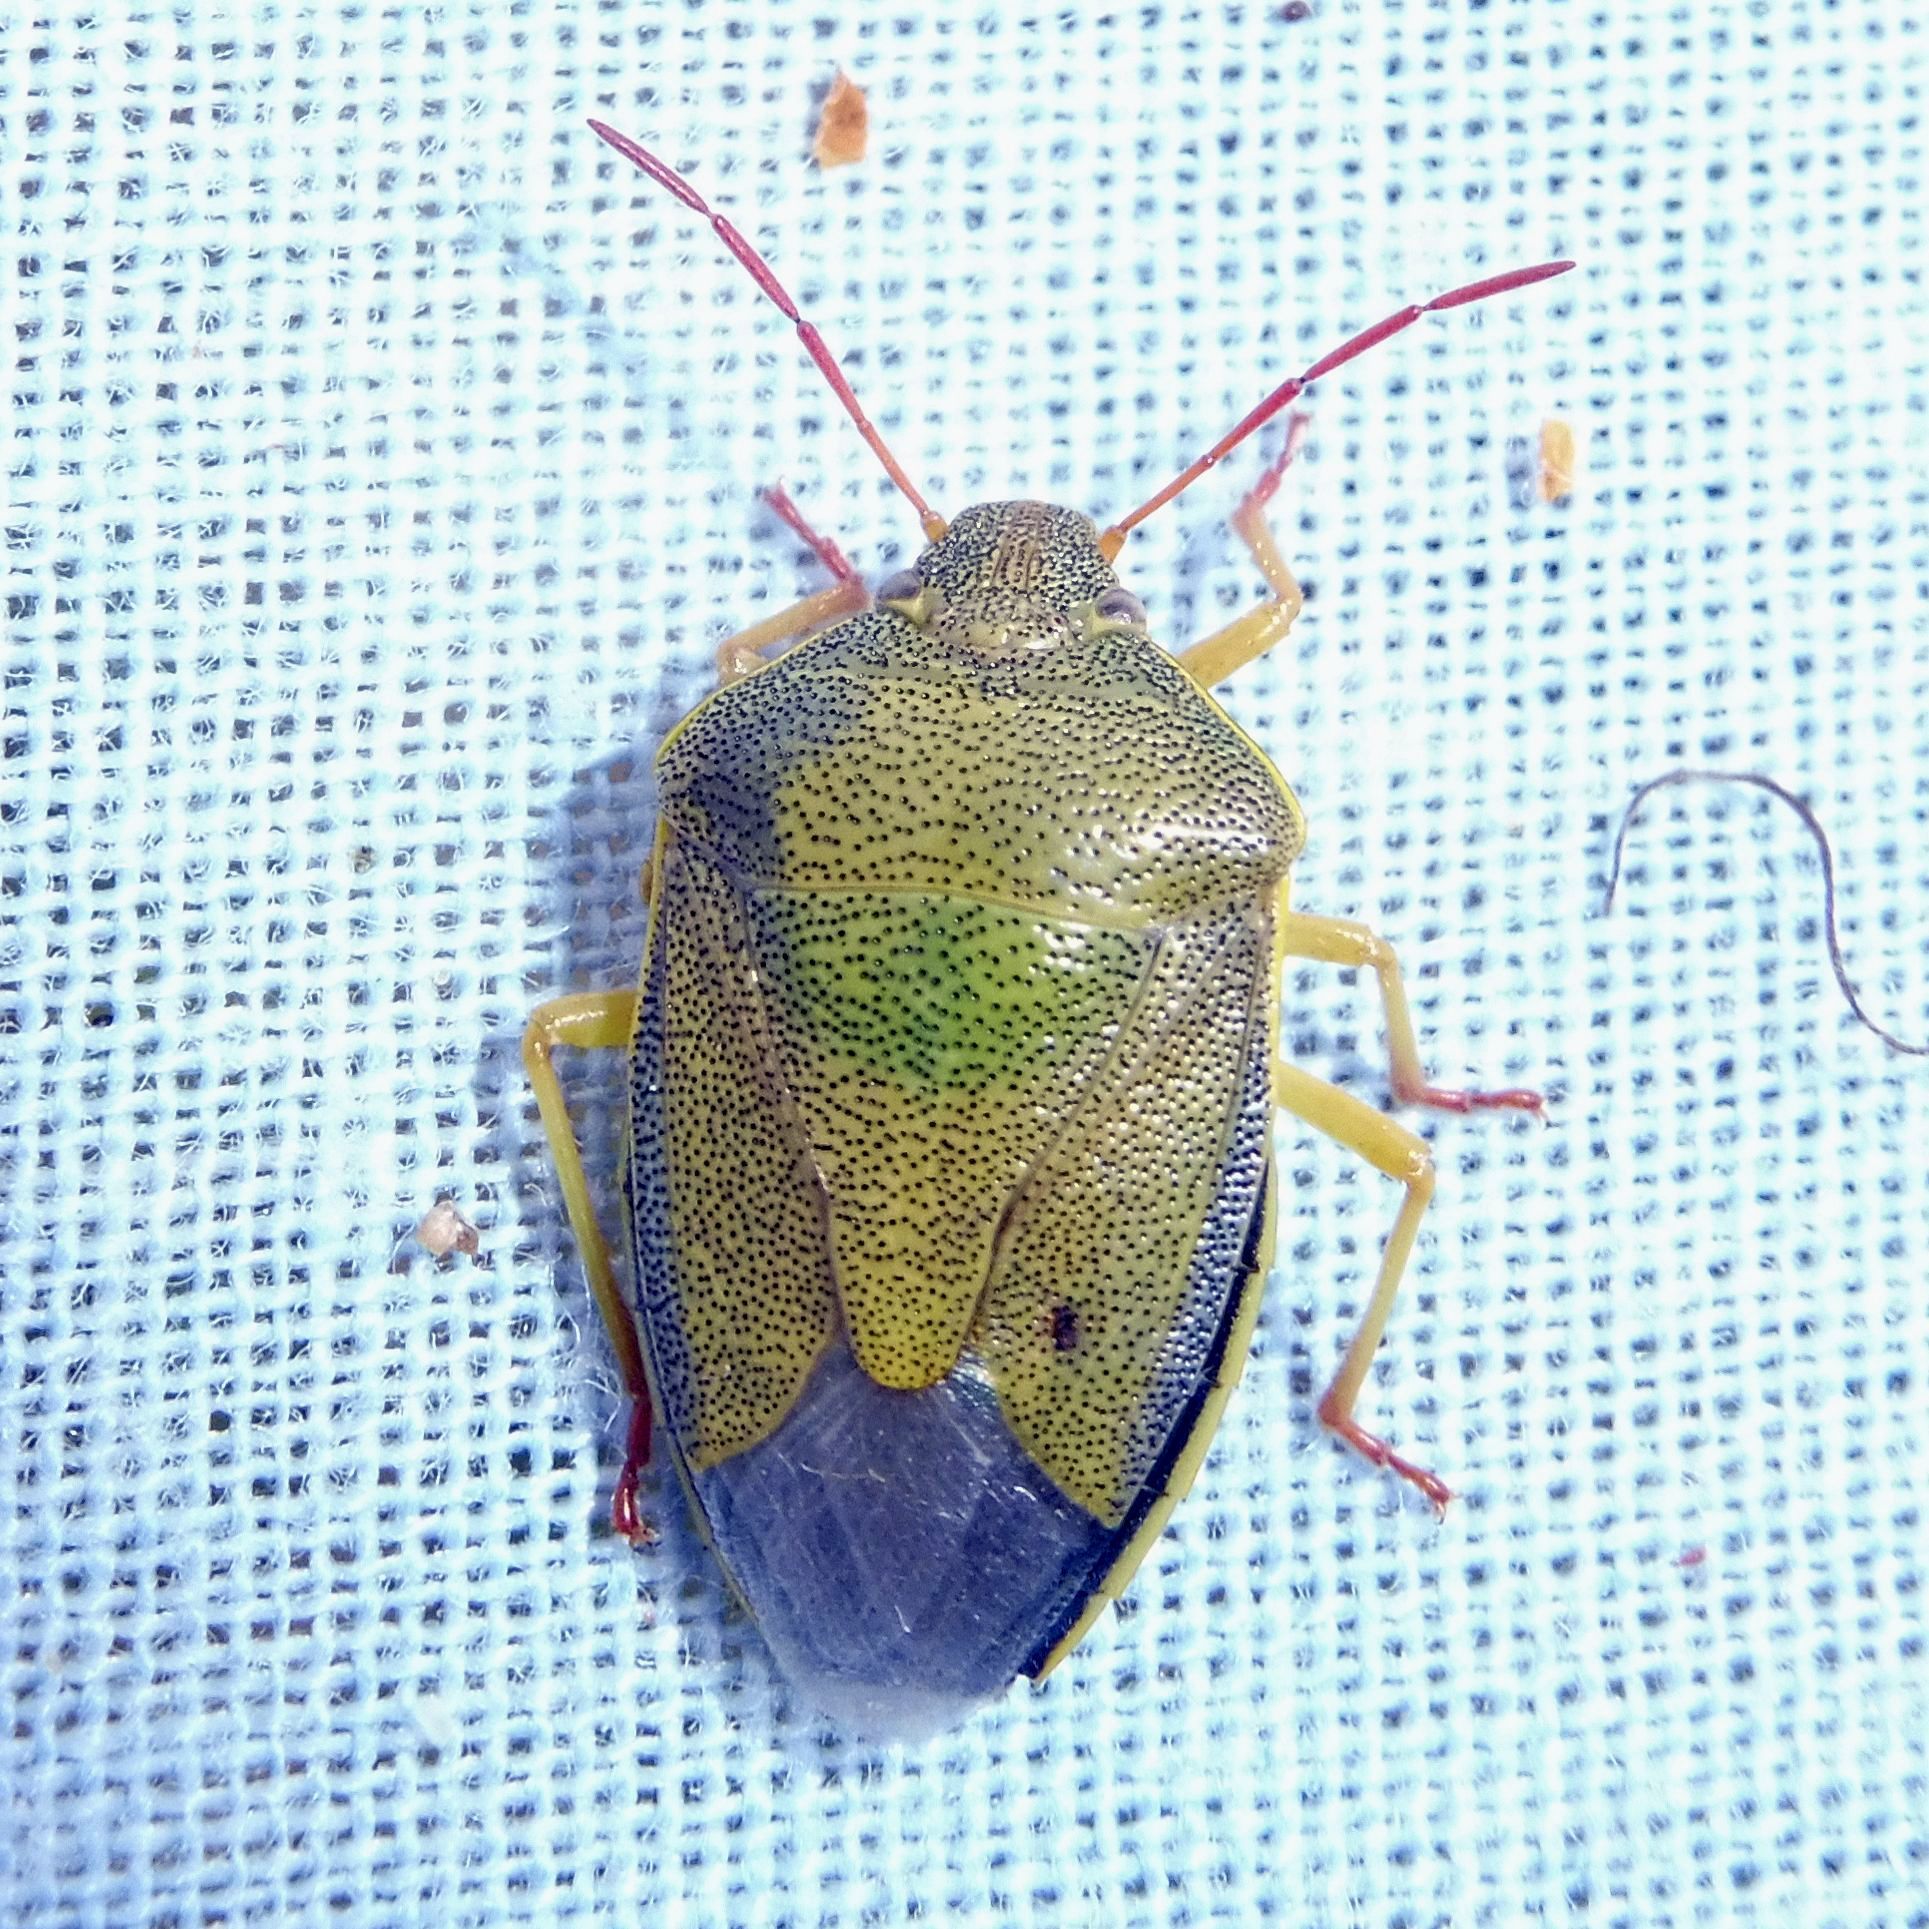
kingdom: Animalia
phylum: Arthropoda
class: Insecta
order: Hemiptera
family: Pentatomidae
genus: Piezodorus
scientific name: Piezodorus lituratus
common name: Stink bug
